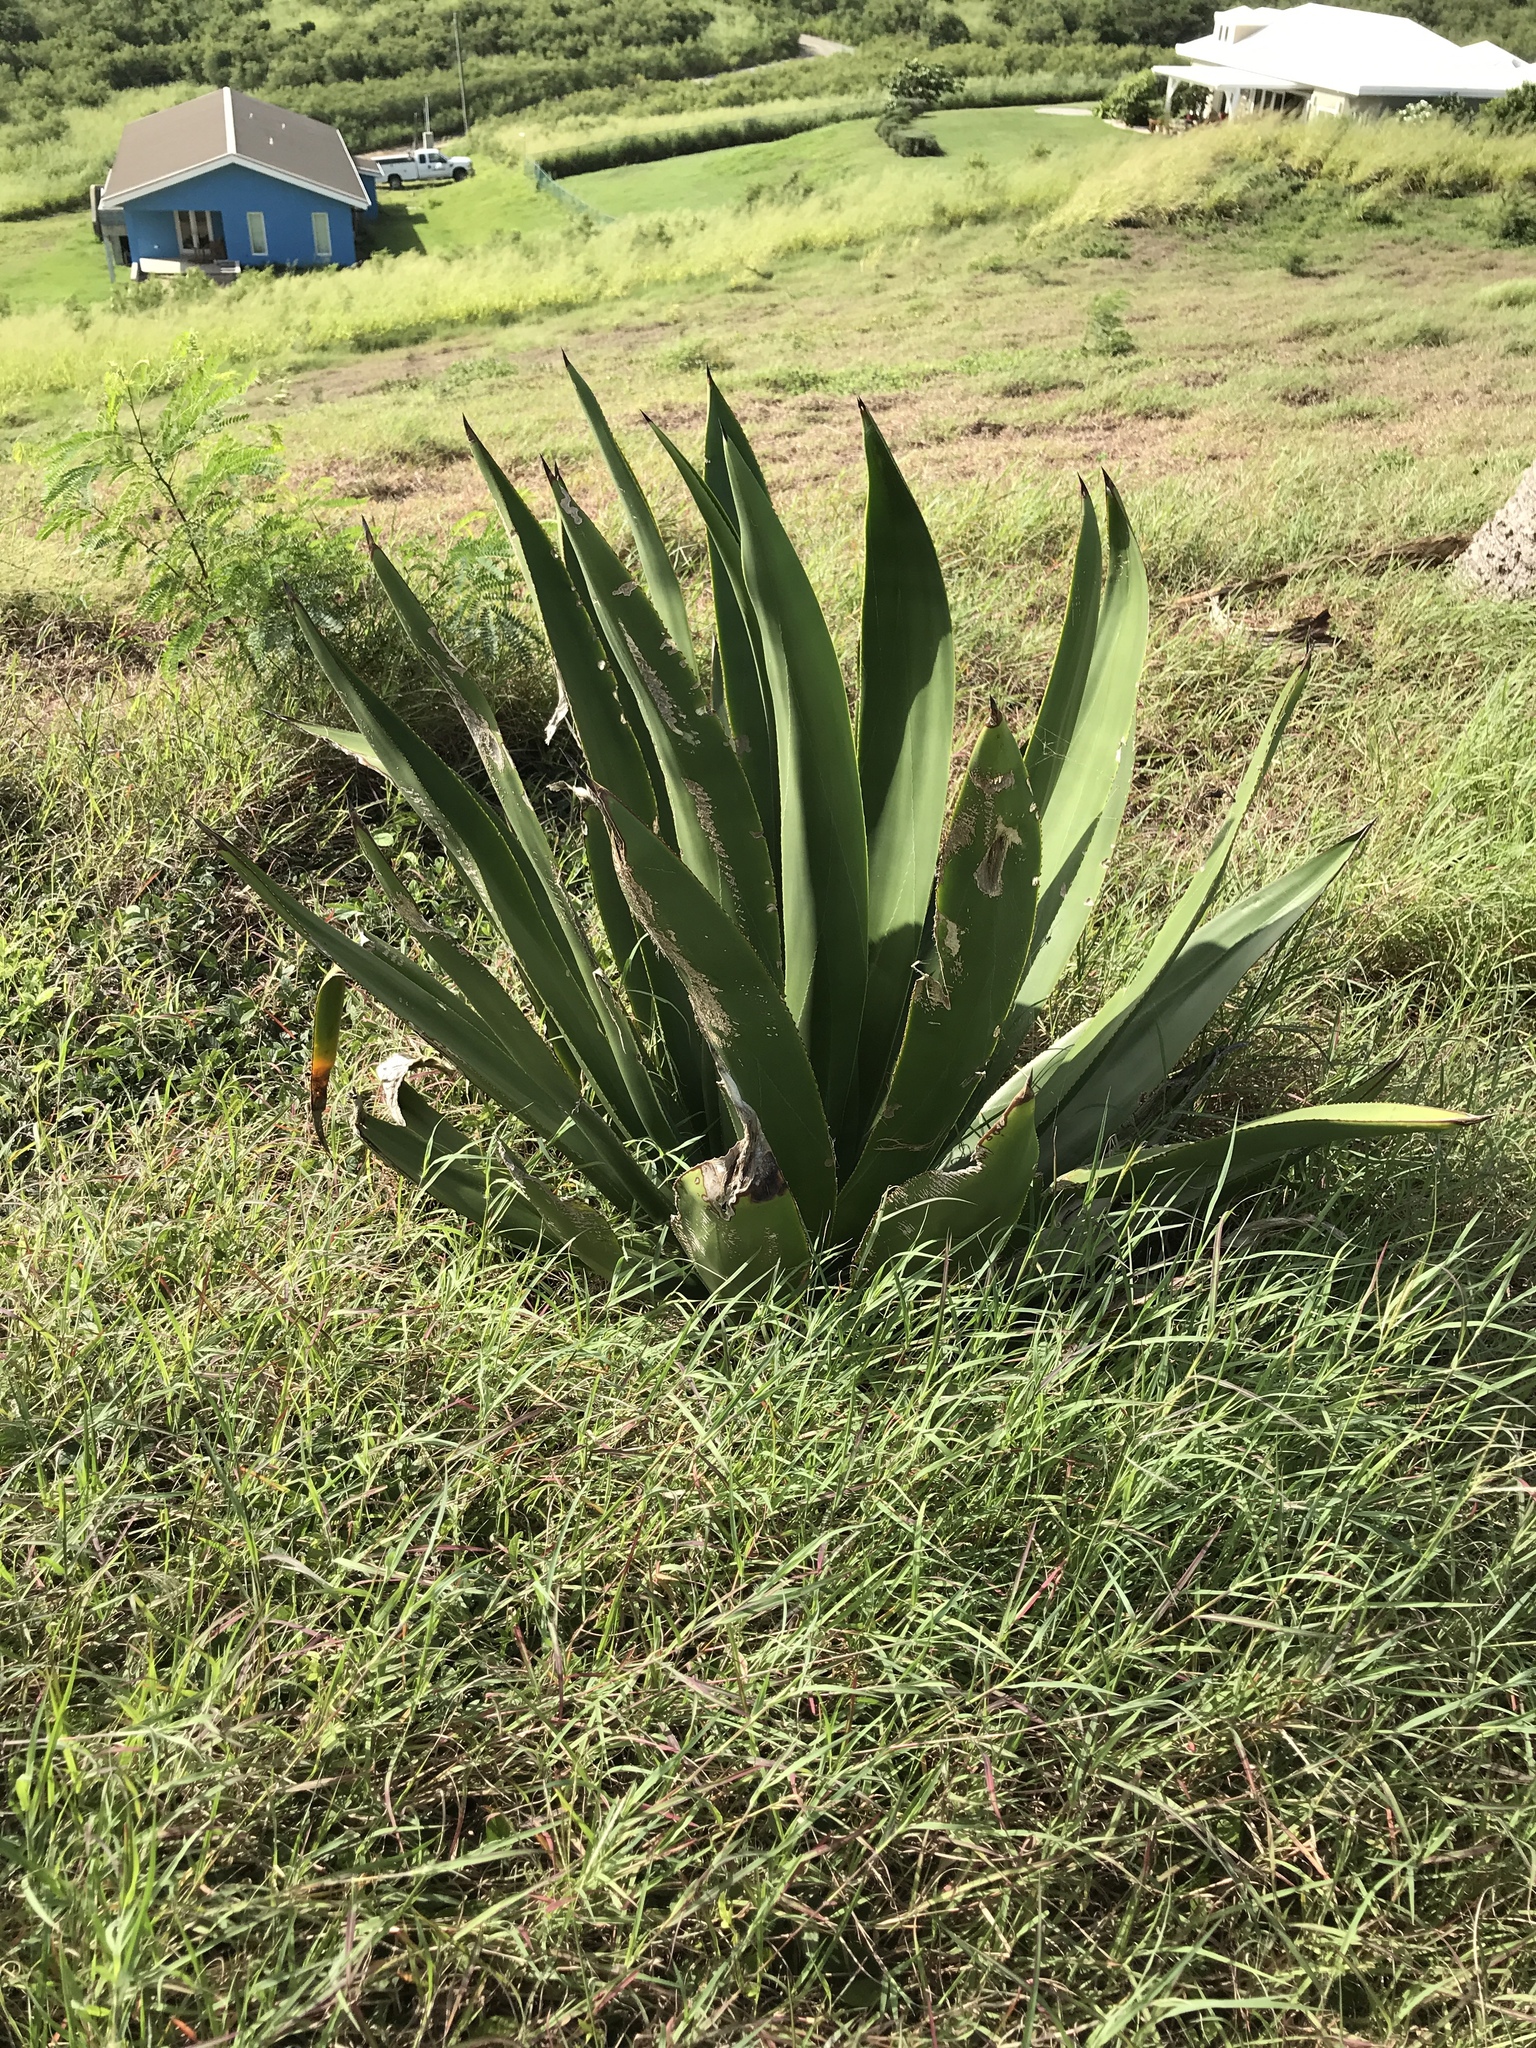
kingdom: Plantae
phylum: Tracheophyta
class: Liliopsida
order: Asparagales
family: Asparagaceae
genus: Agave
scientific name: Agave eggersiana
